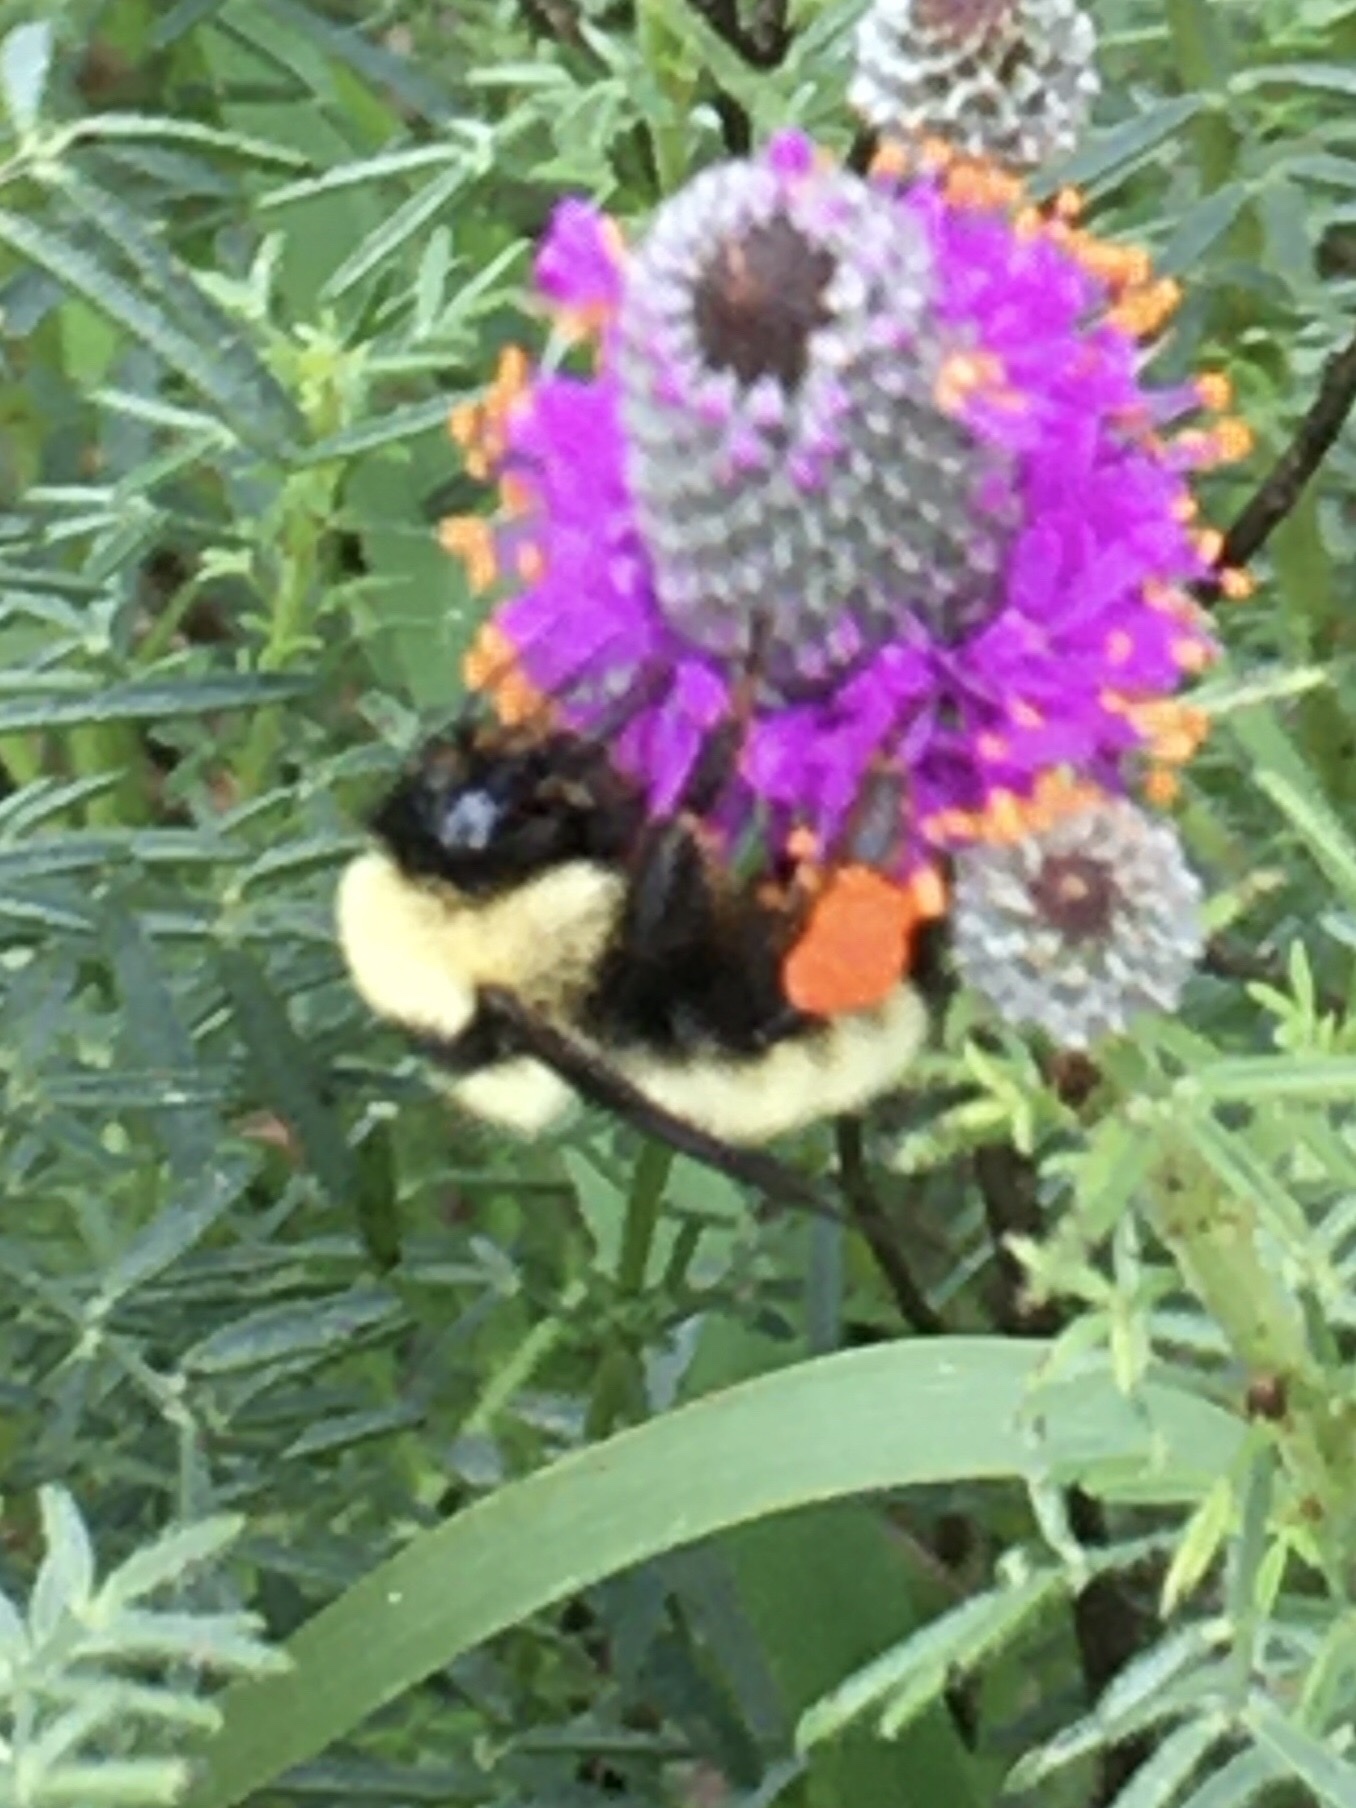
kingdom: Animalia
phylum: Arthropoda
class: Insecta
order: Hymenoptera
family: Apidae
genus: Bombus
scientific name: Bombus fervidus
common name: Yellow bumble bee
